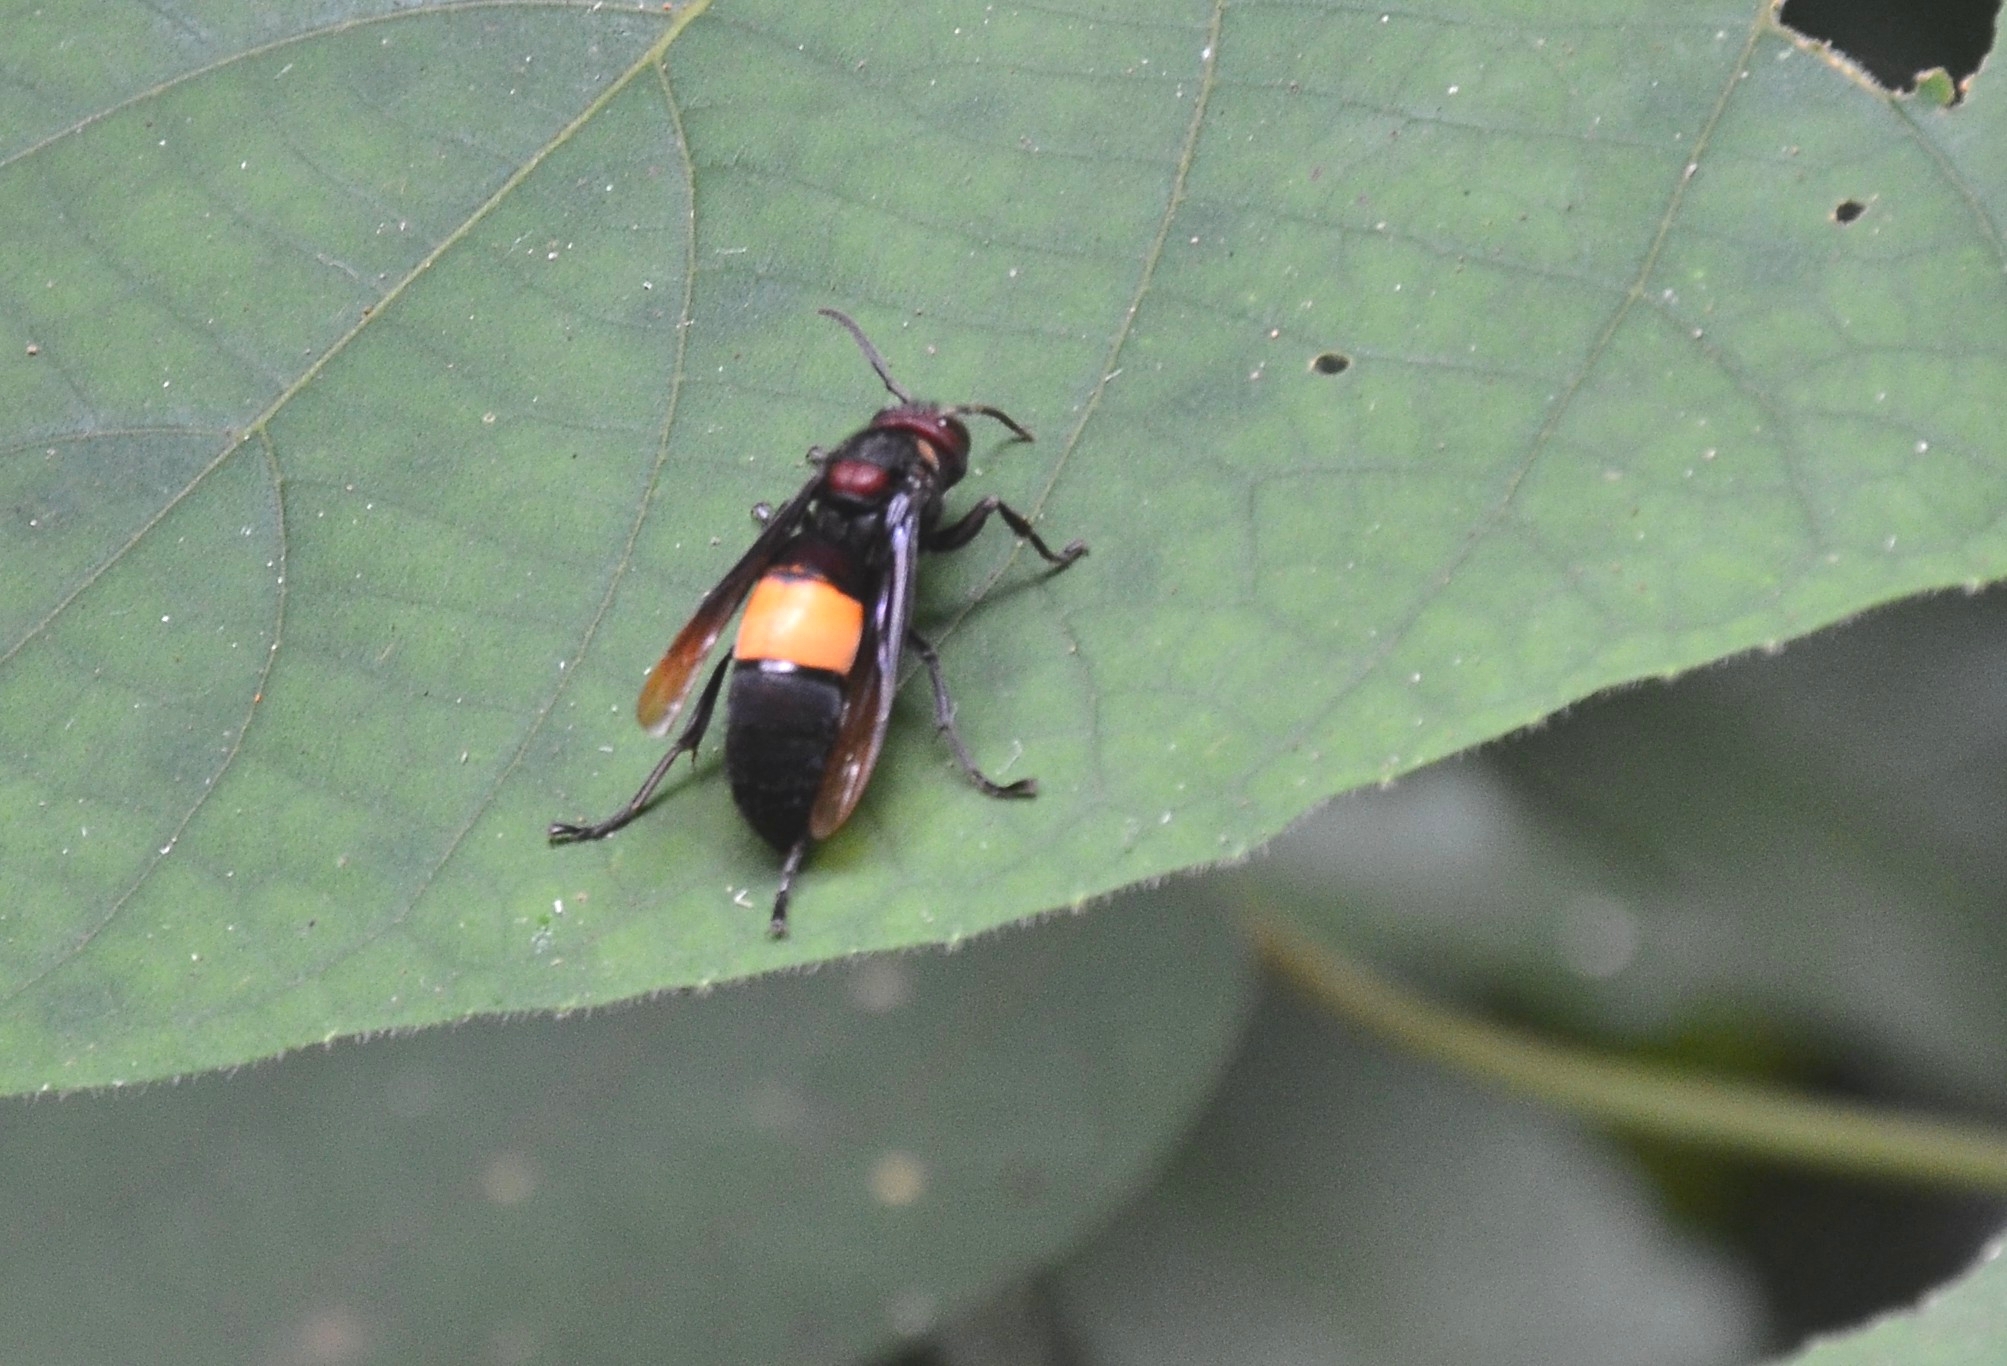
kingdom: Animalia
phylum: Arthropoda
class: Insecta
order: Hymenoptera
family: Vespidae
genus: Vespa
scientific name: Vespa tropica
